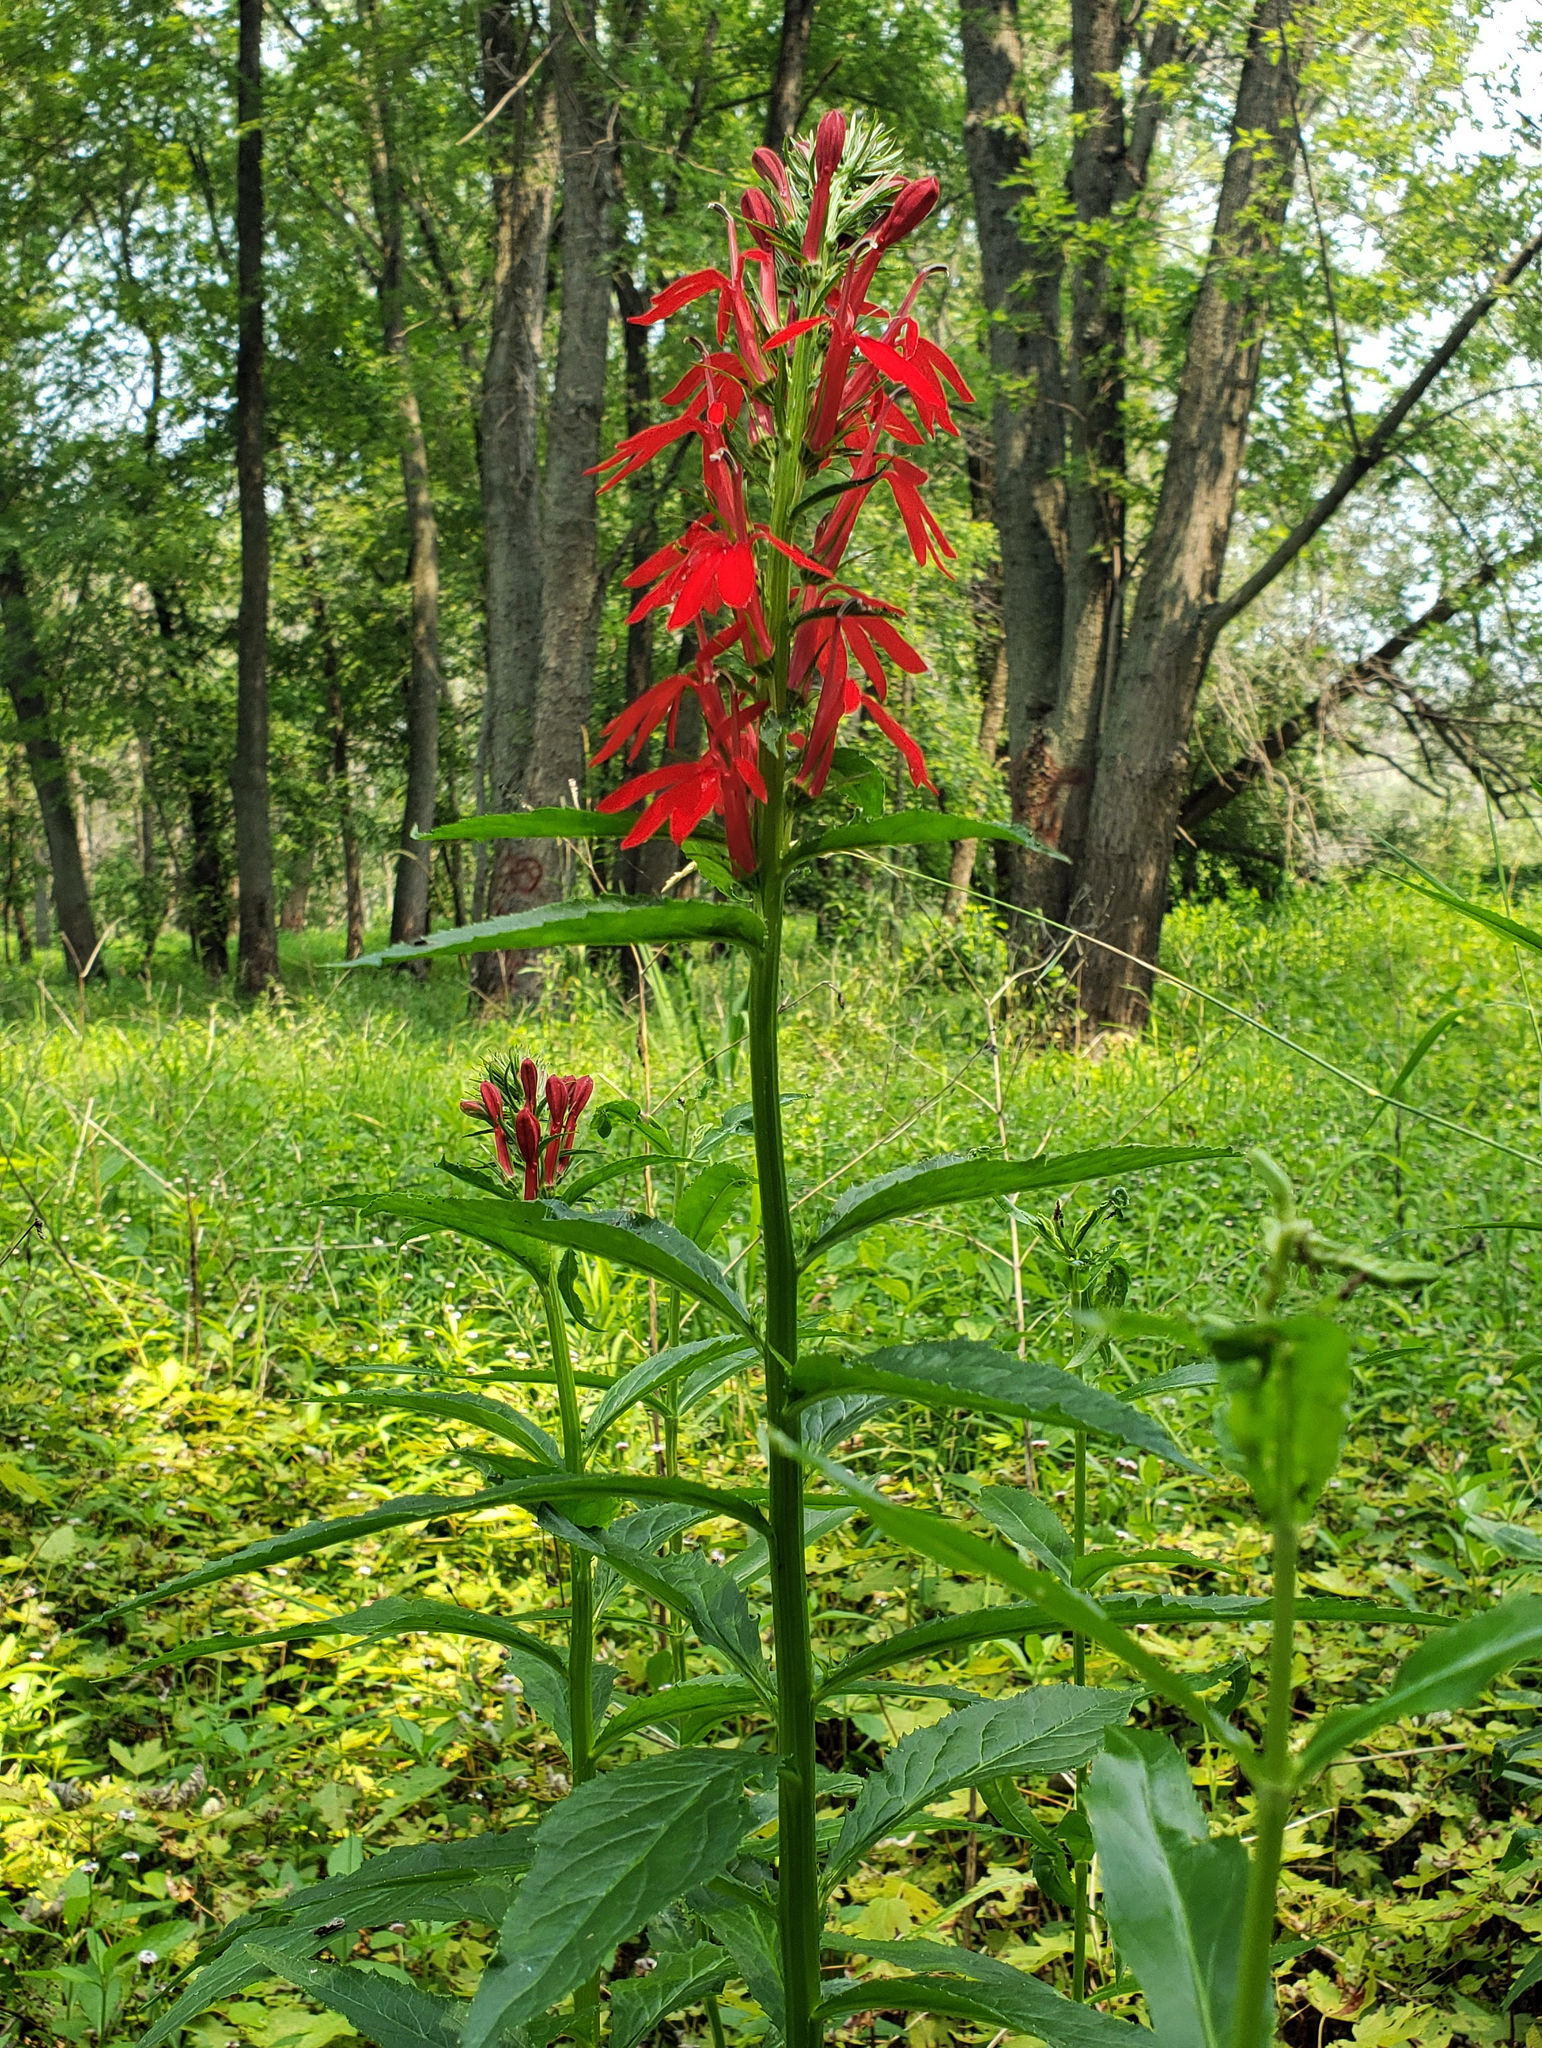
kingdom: Plantae
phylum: Tracheophyta
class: Magnoliopsida
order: Asterales
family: Campanulaceae
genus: Lobelia
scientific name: Lobelia cardinalis
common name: Cardinal flower
